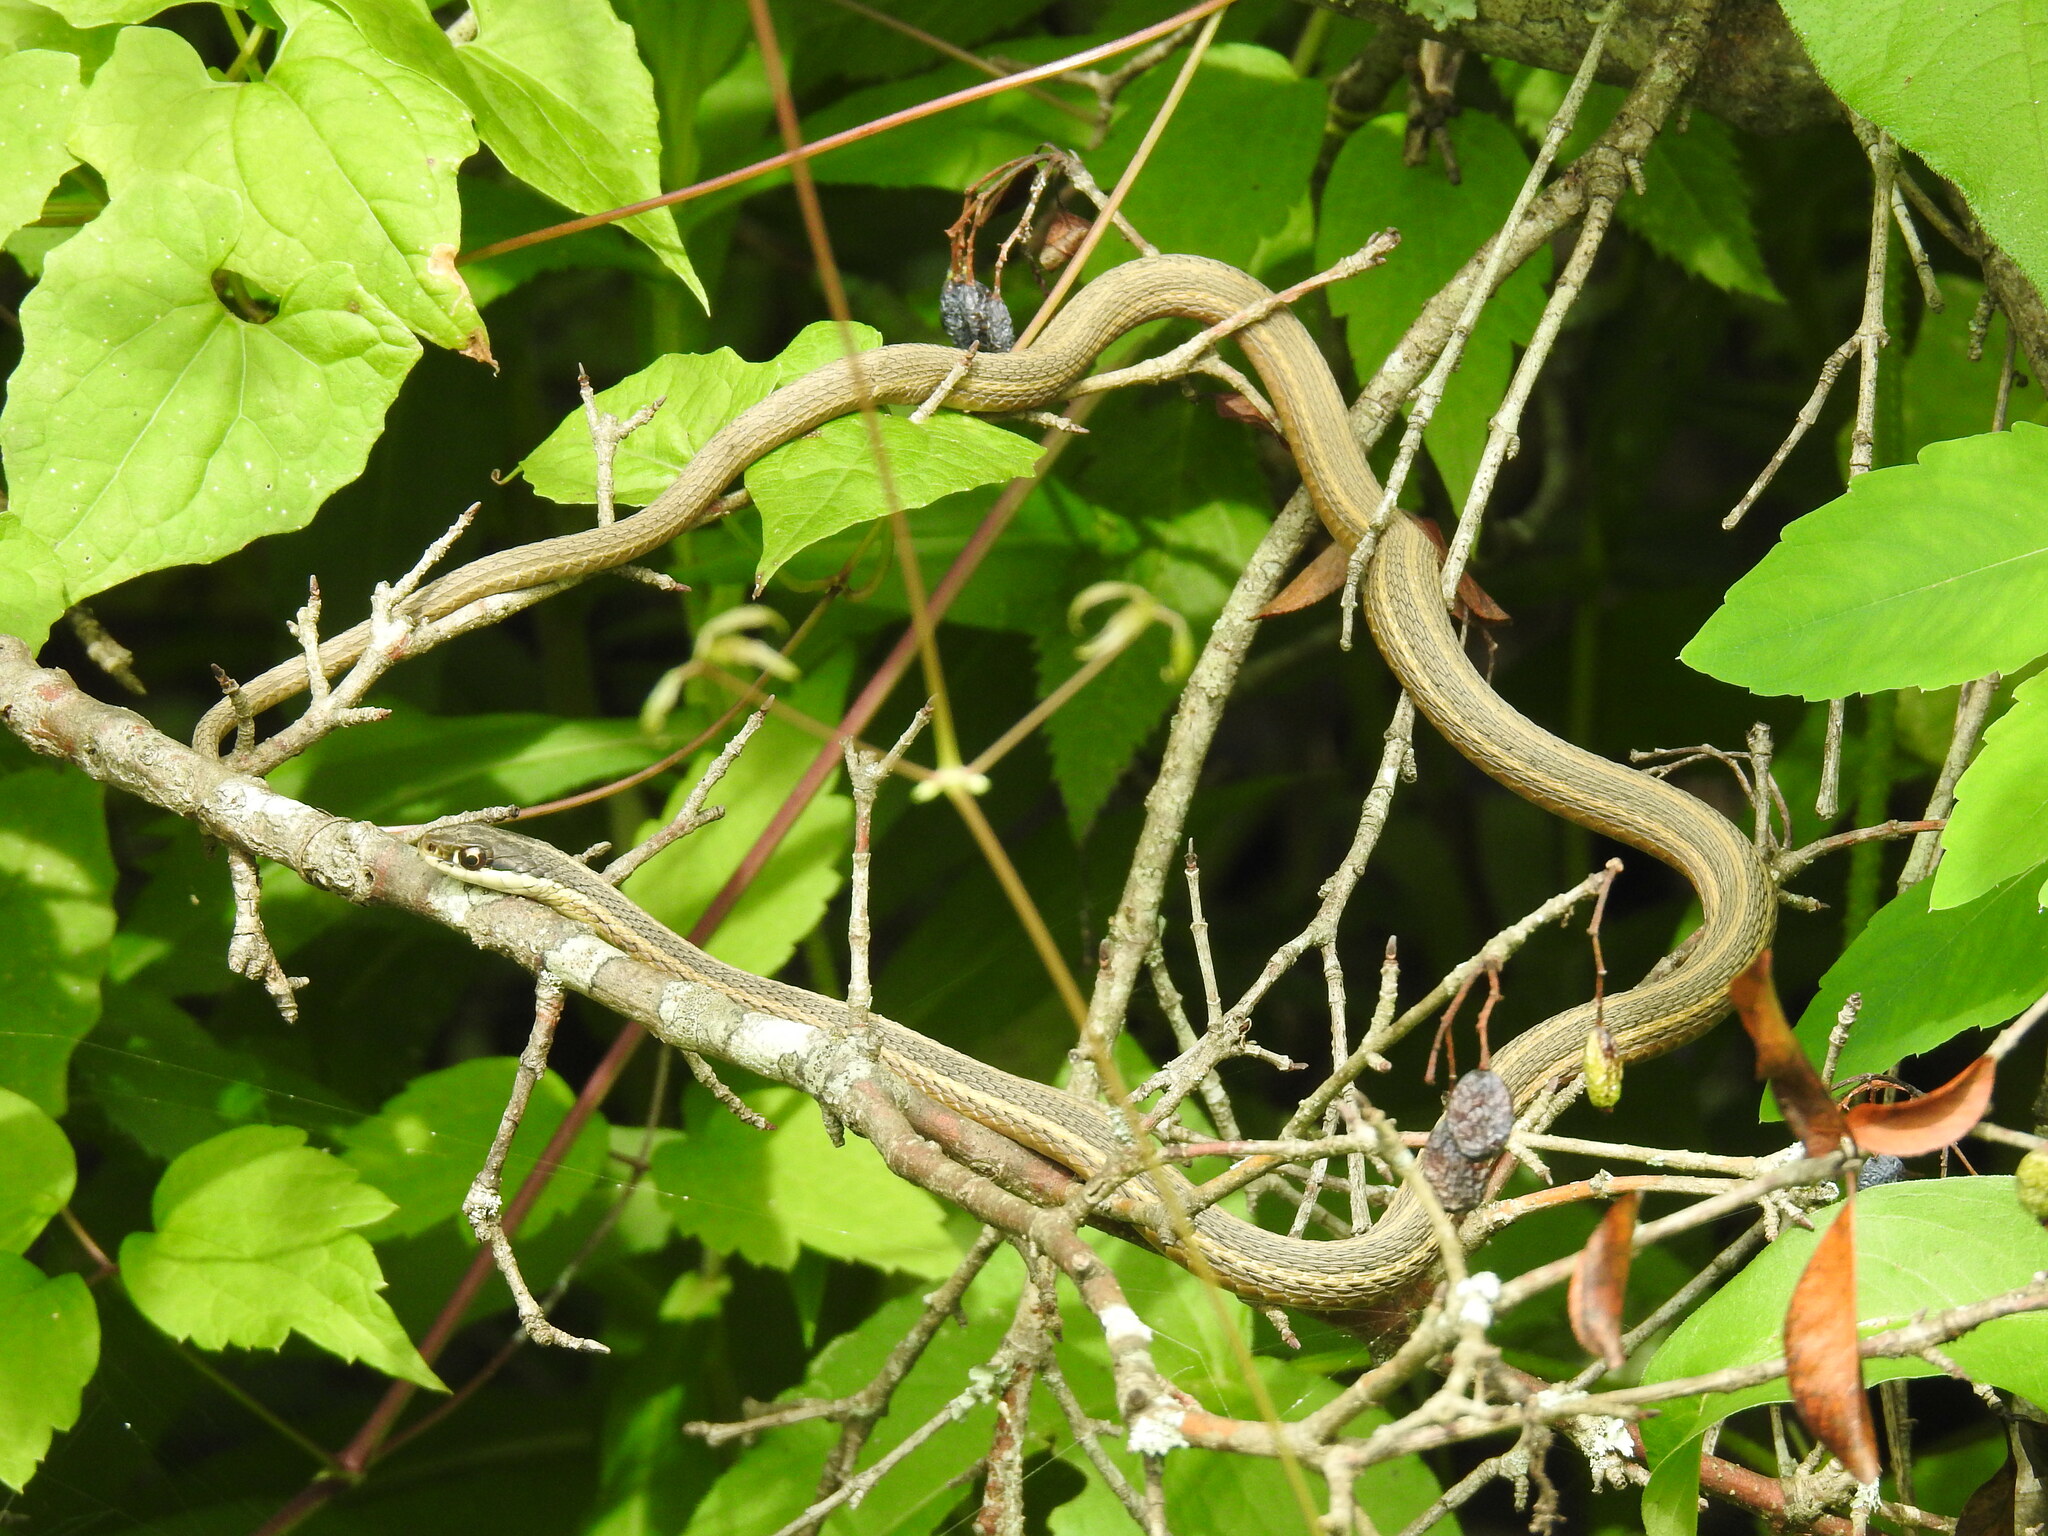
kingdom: Animalia
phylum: Chordata
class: Squamata
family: Colubridae
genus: Thamnophis
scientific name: Thamnophis saurita
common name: Eastern ribbonsnake
